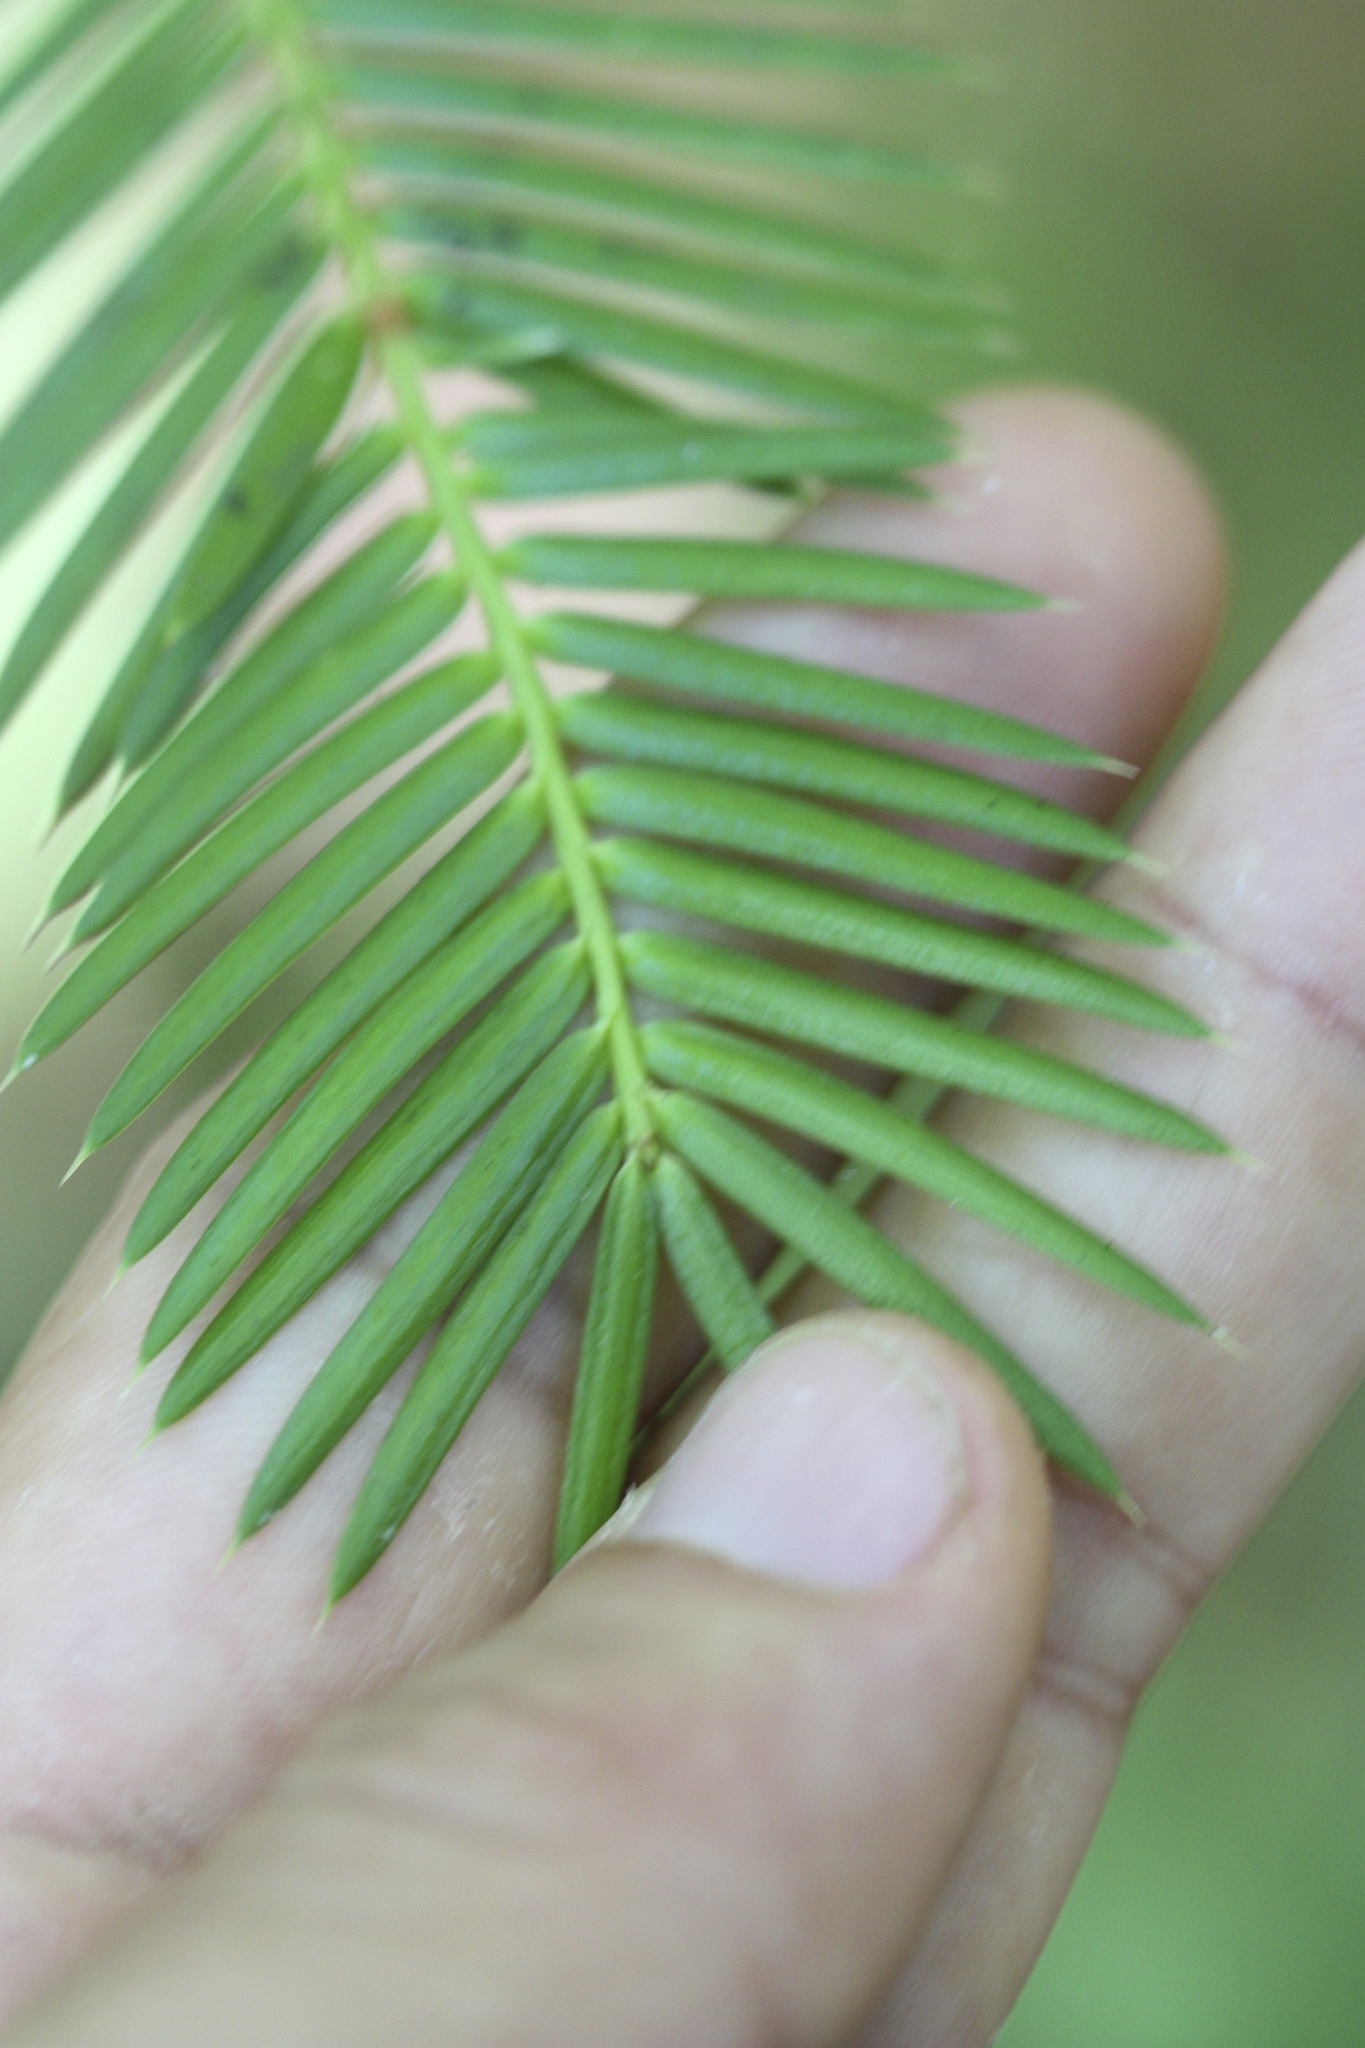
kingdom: Plantae
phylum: Tracheophyta
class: Pinopsida
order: Pinales
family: Taxaceae
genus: Torreya
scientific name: Torreya californica
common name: California torreya
